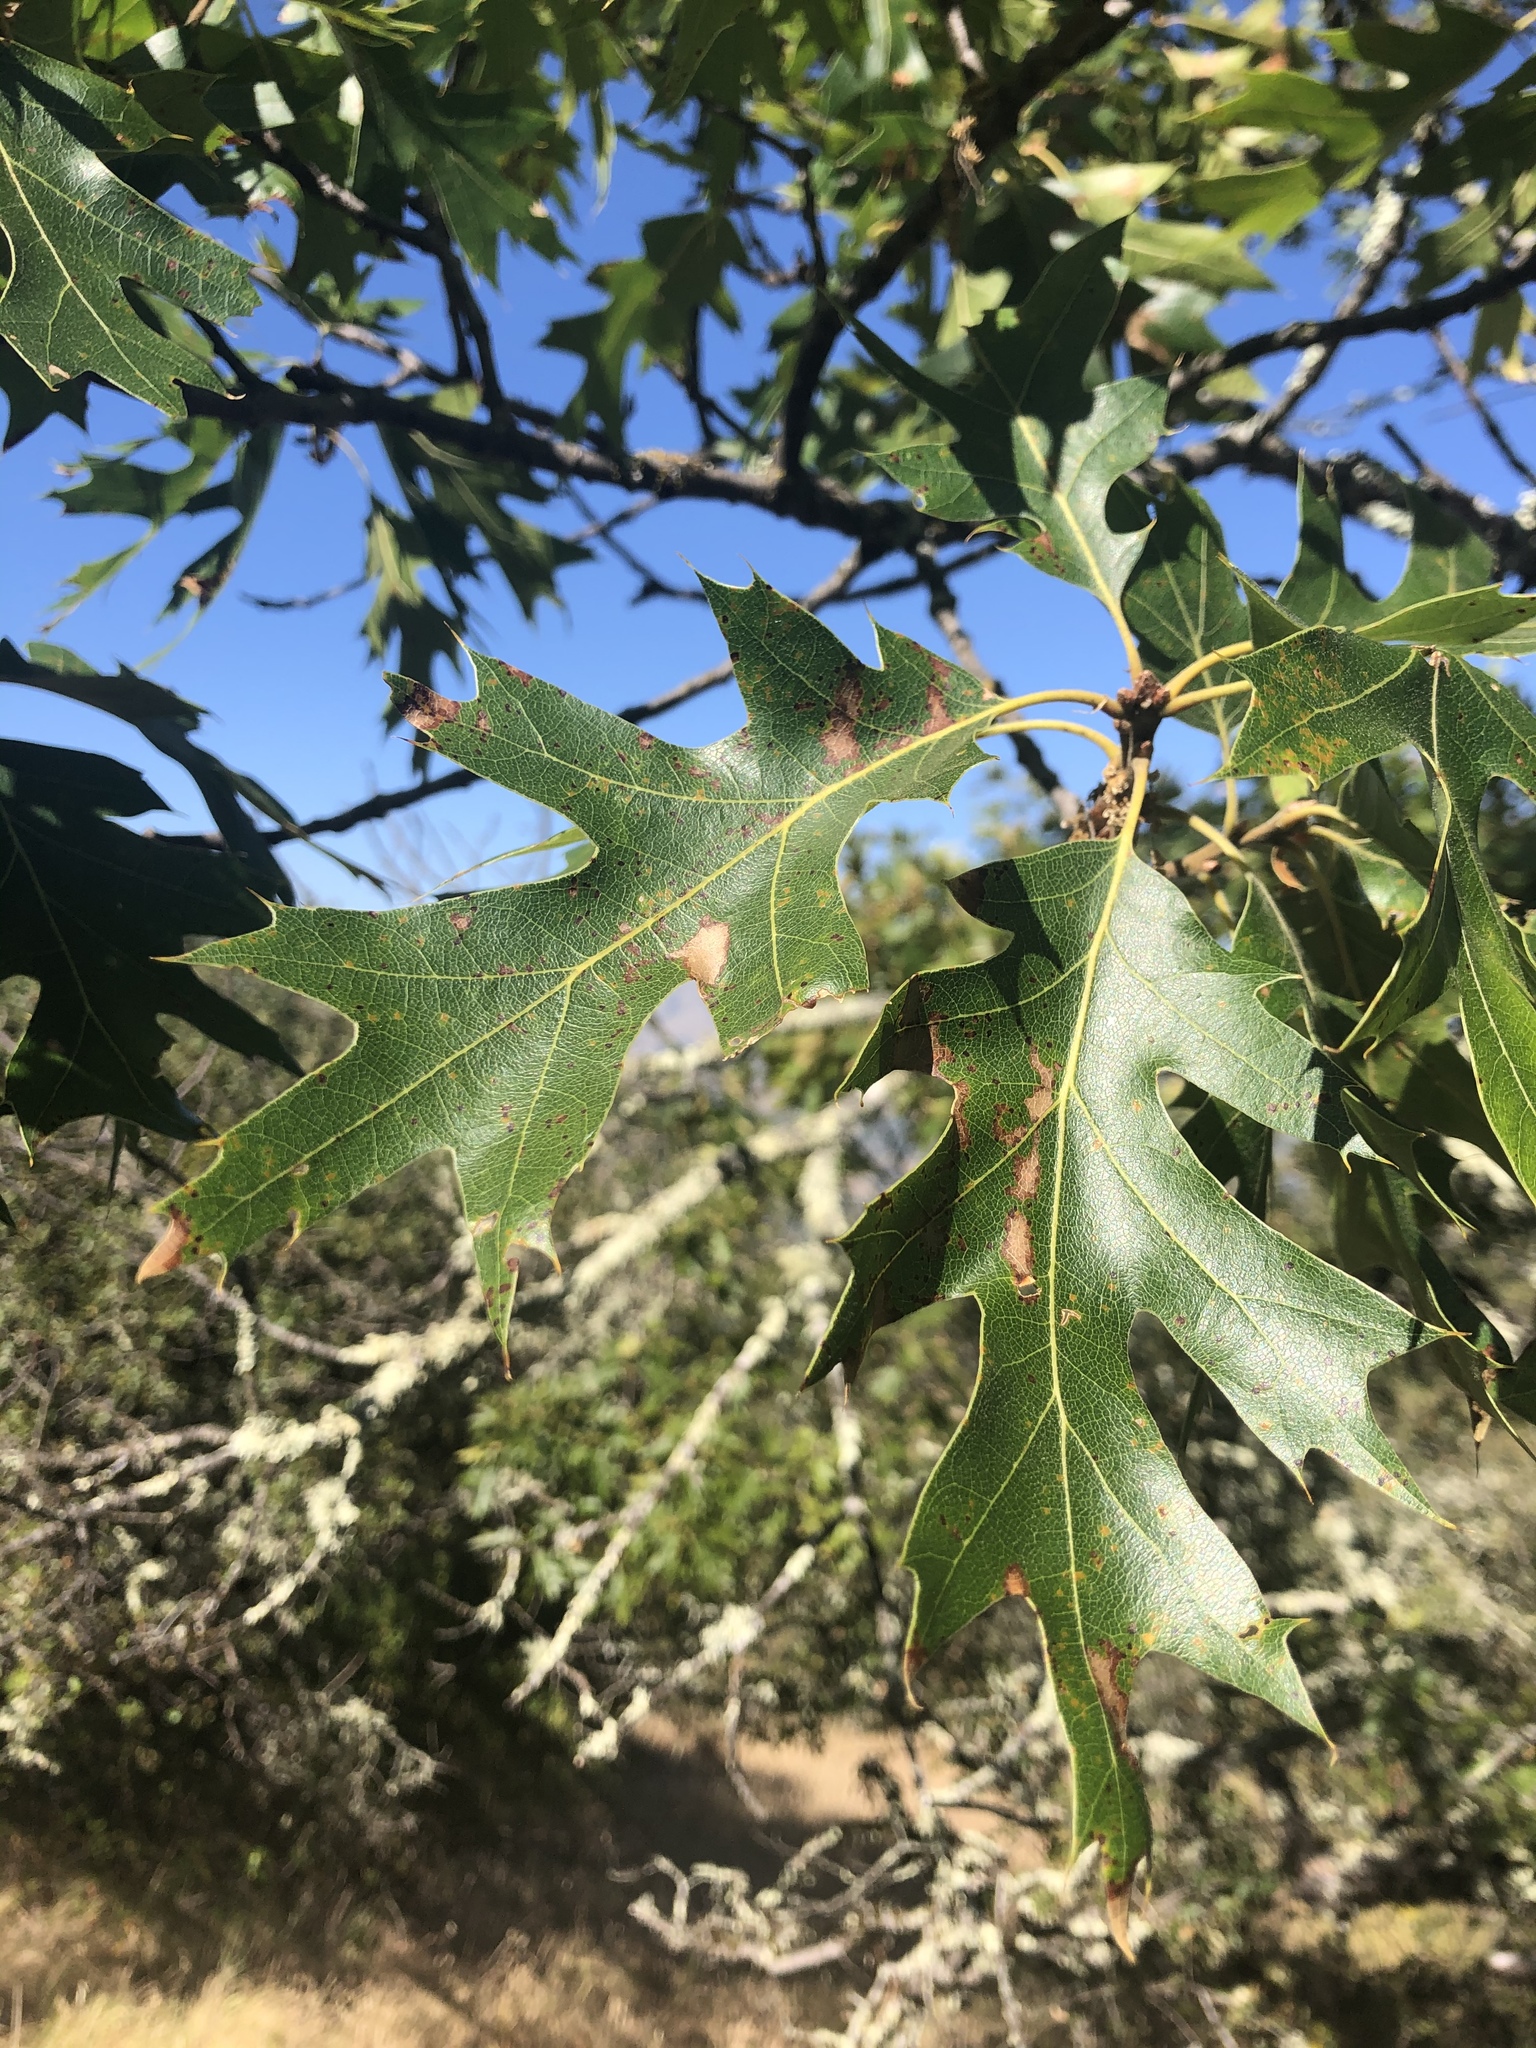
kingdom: Plantae
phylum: Tracheophyta
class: Magnoliopsida
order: Fagales
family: Fagaceae
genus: Quercus
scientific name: Quercus kelloggii
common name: California black oak
